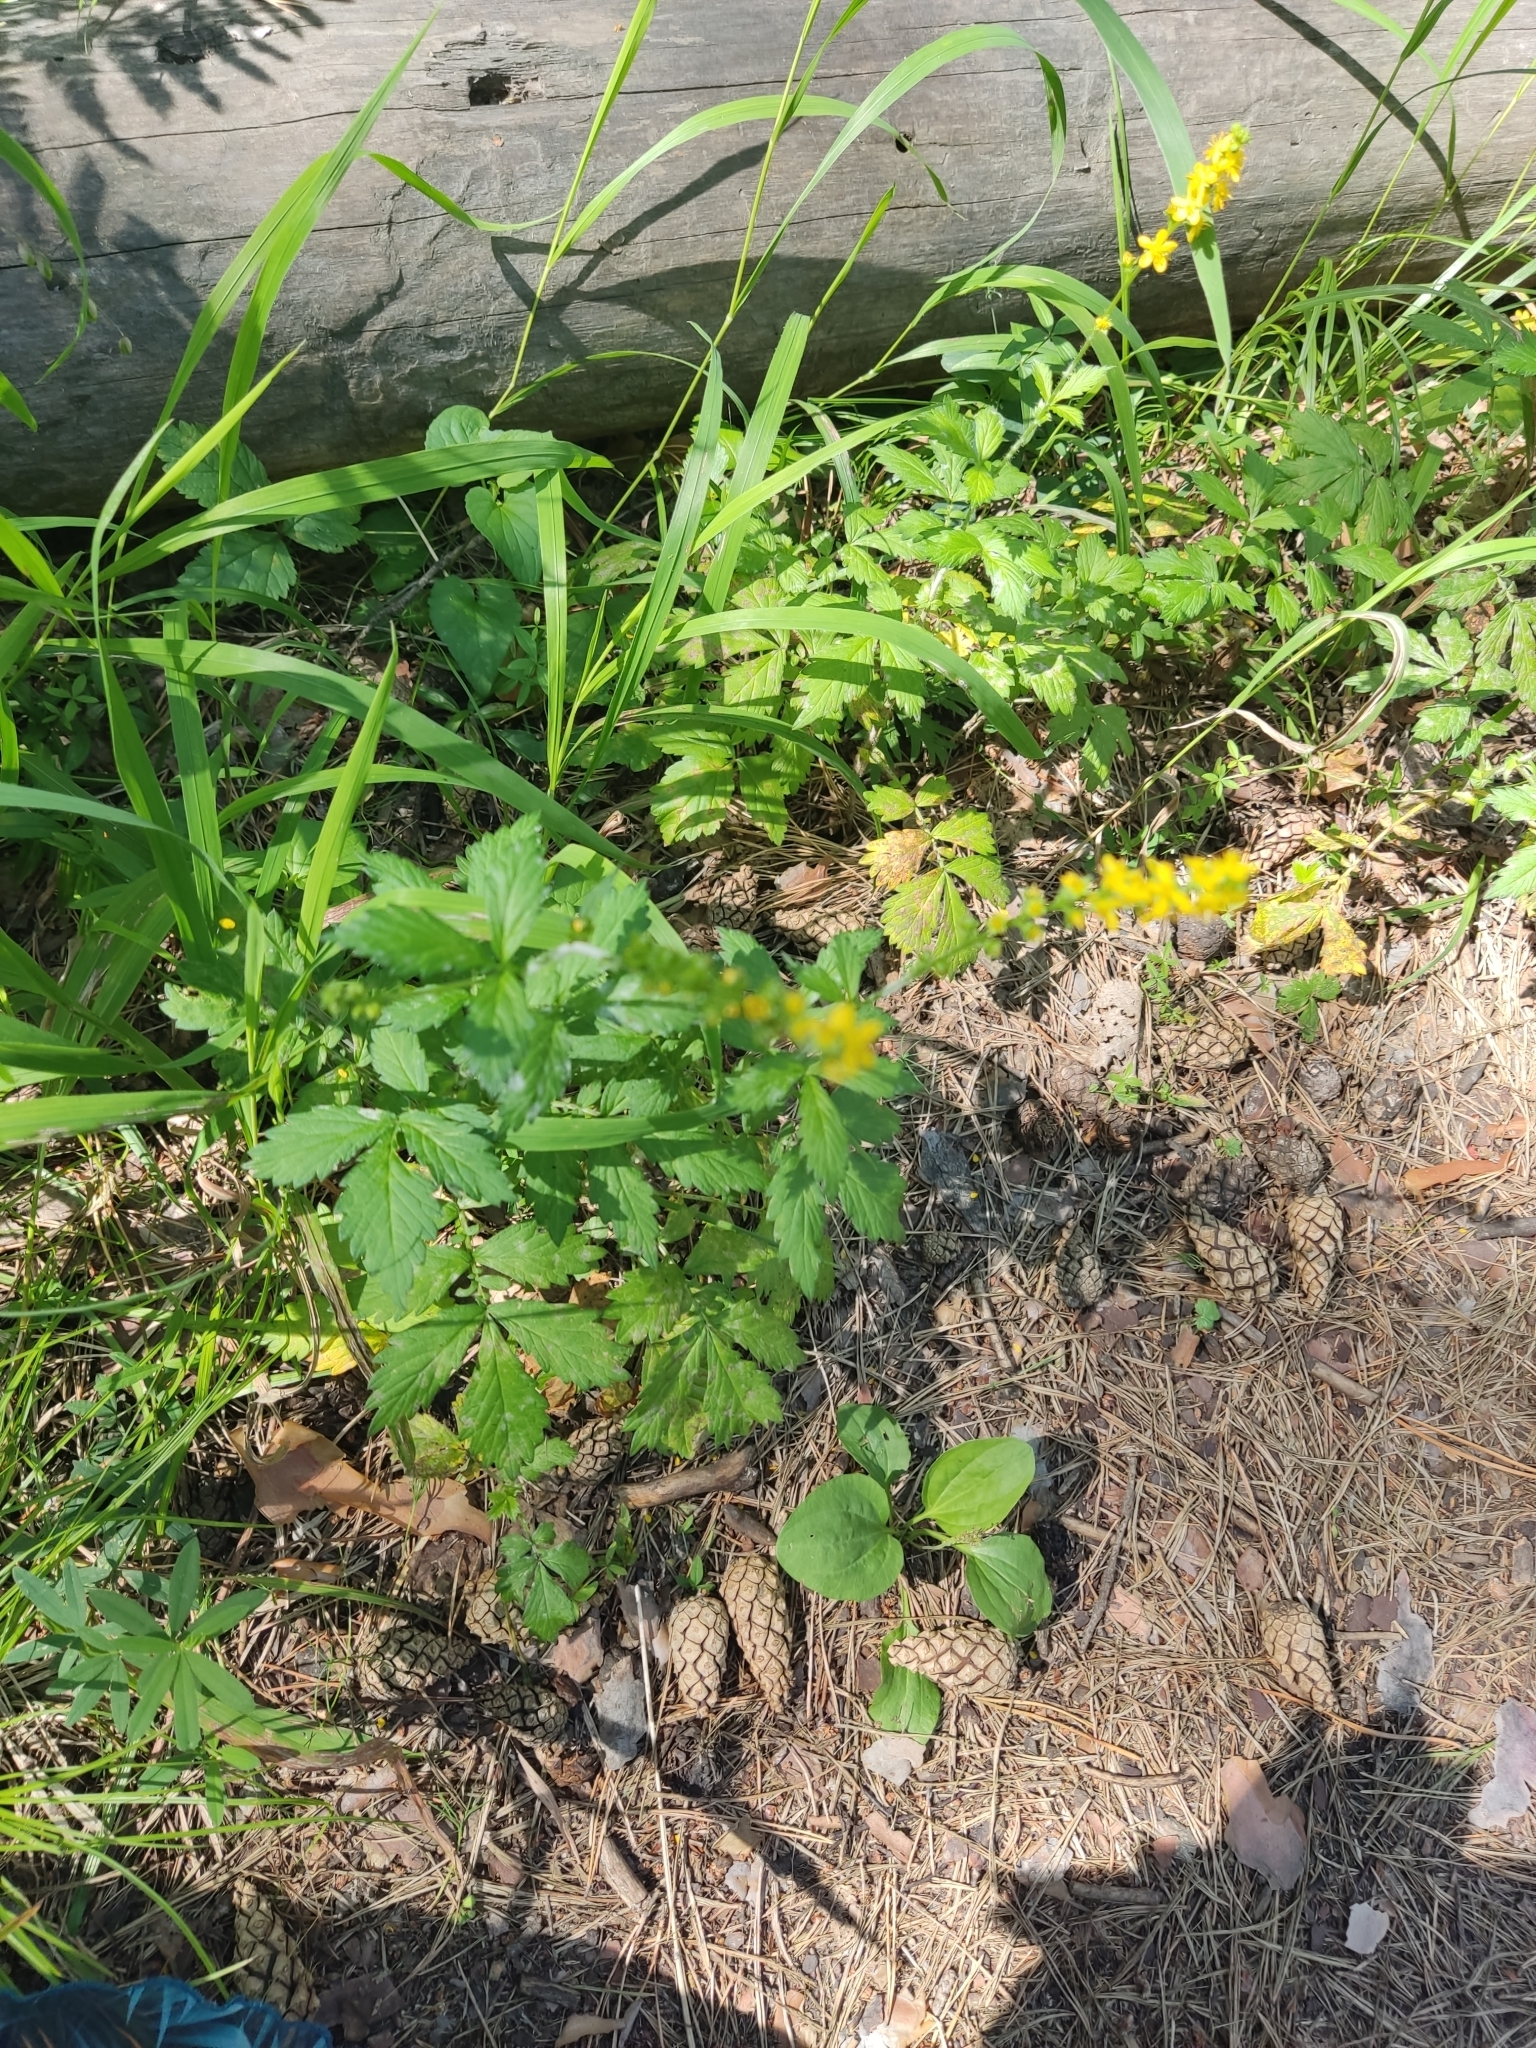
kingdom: Plantae
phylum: Tracheophyta
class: Magnoliopsida
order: Rosales
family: Rosaceae
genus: Agrimonia
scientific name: Agrimonia pilosa
